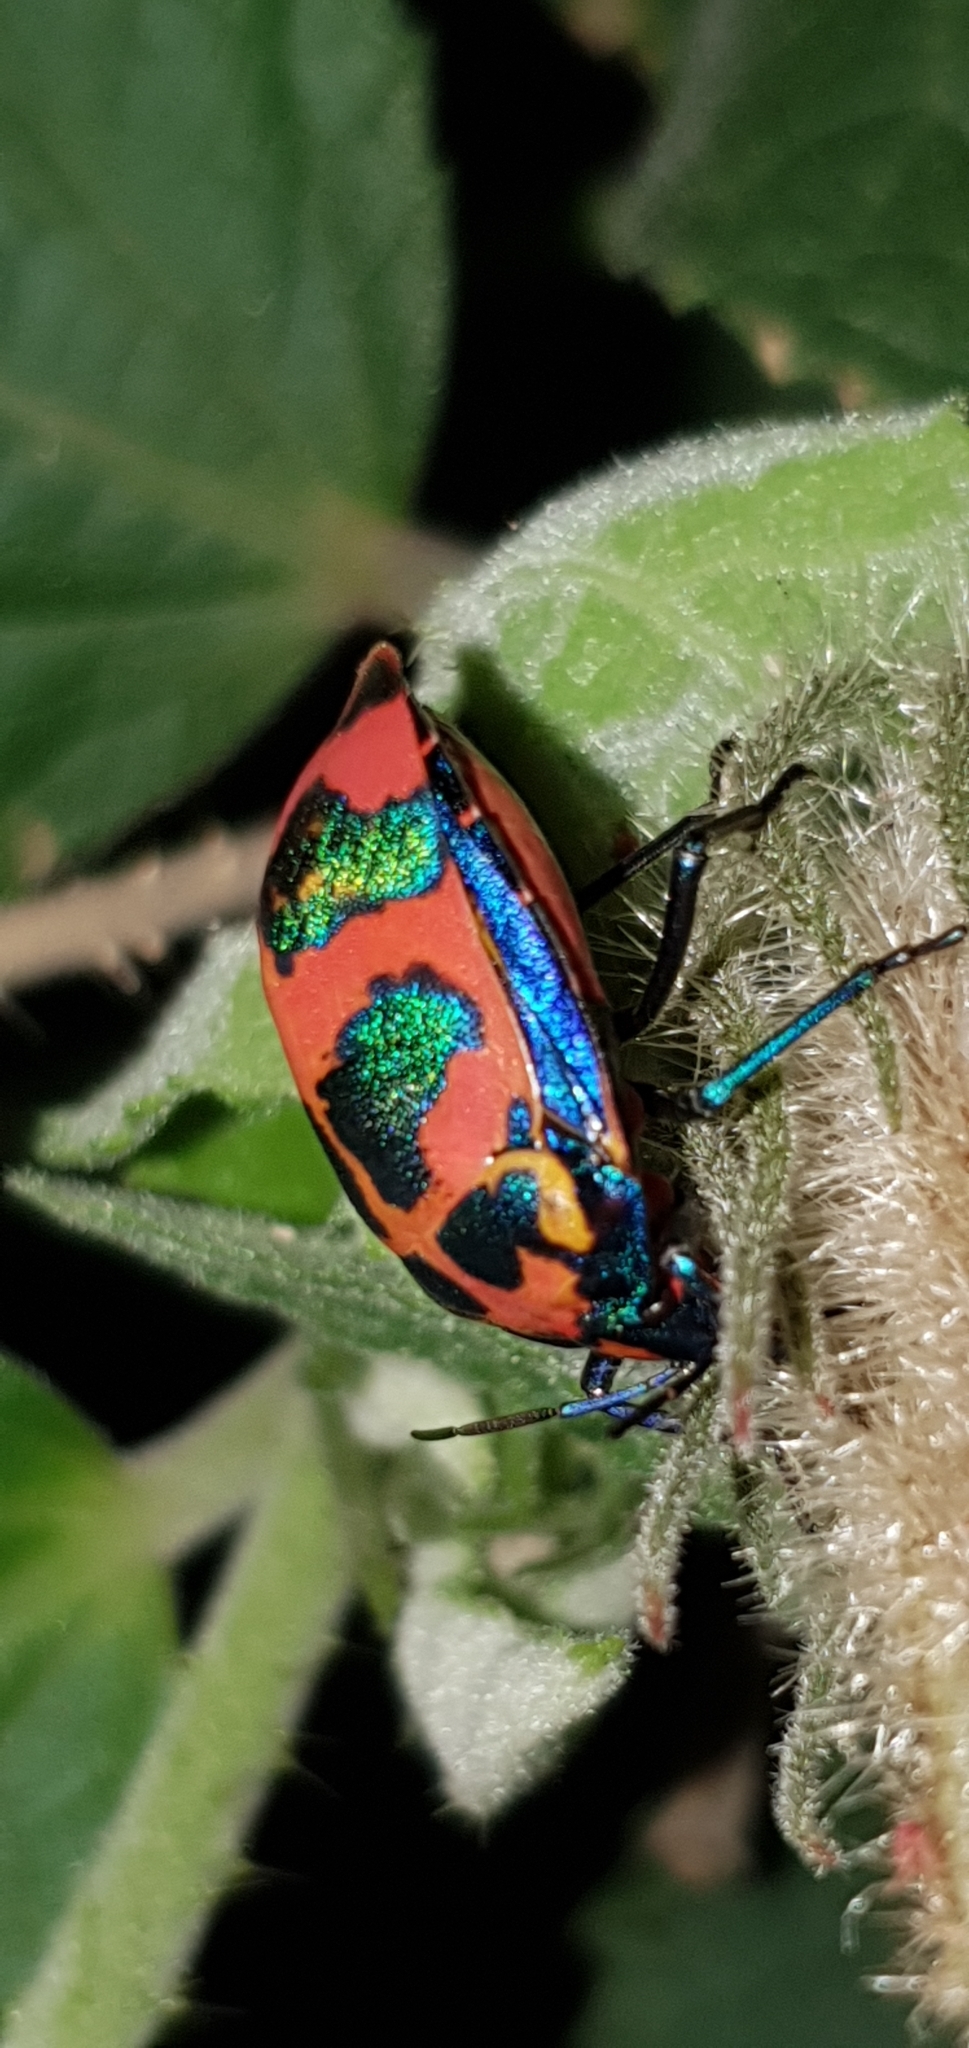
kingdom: Animalia
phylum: Arthropoda
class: Insecta
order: Hemiptera
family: Scutelleridae
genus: Tectocoris
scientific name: Tectocoris diophthalmus
